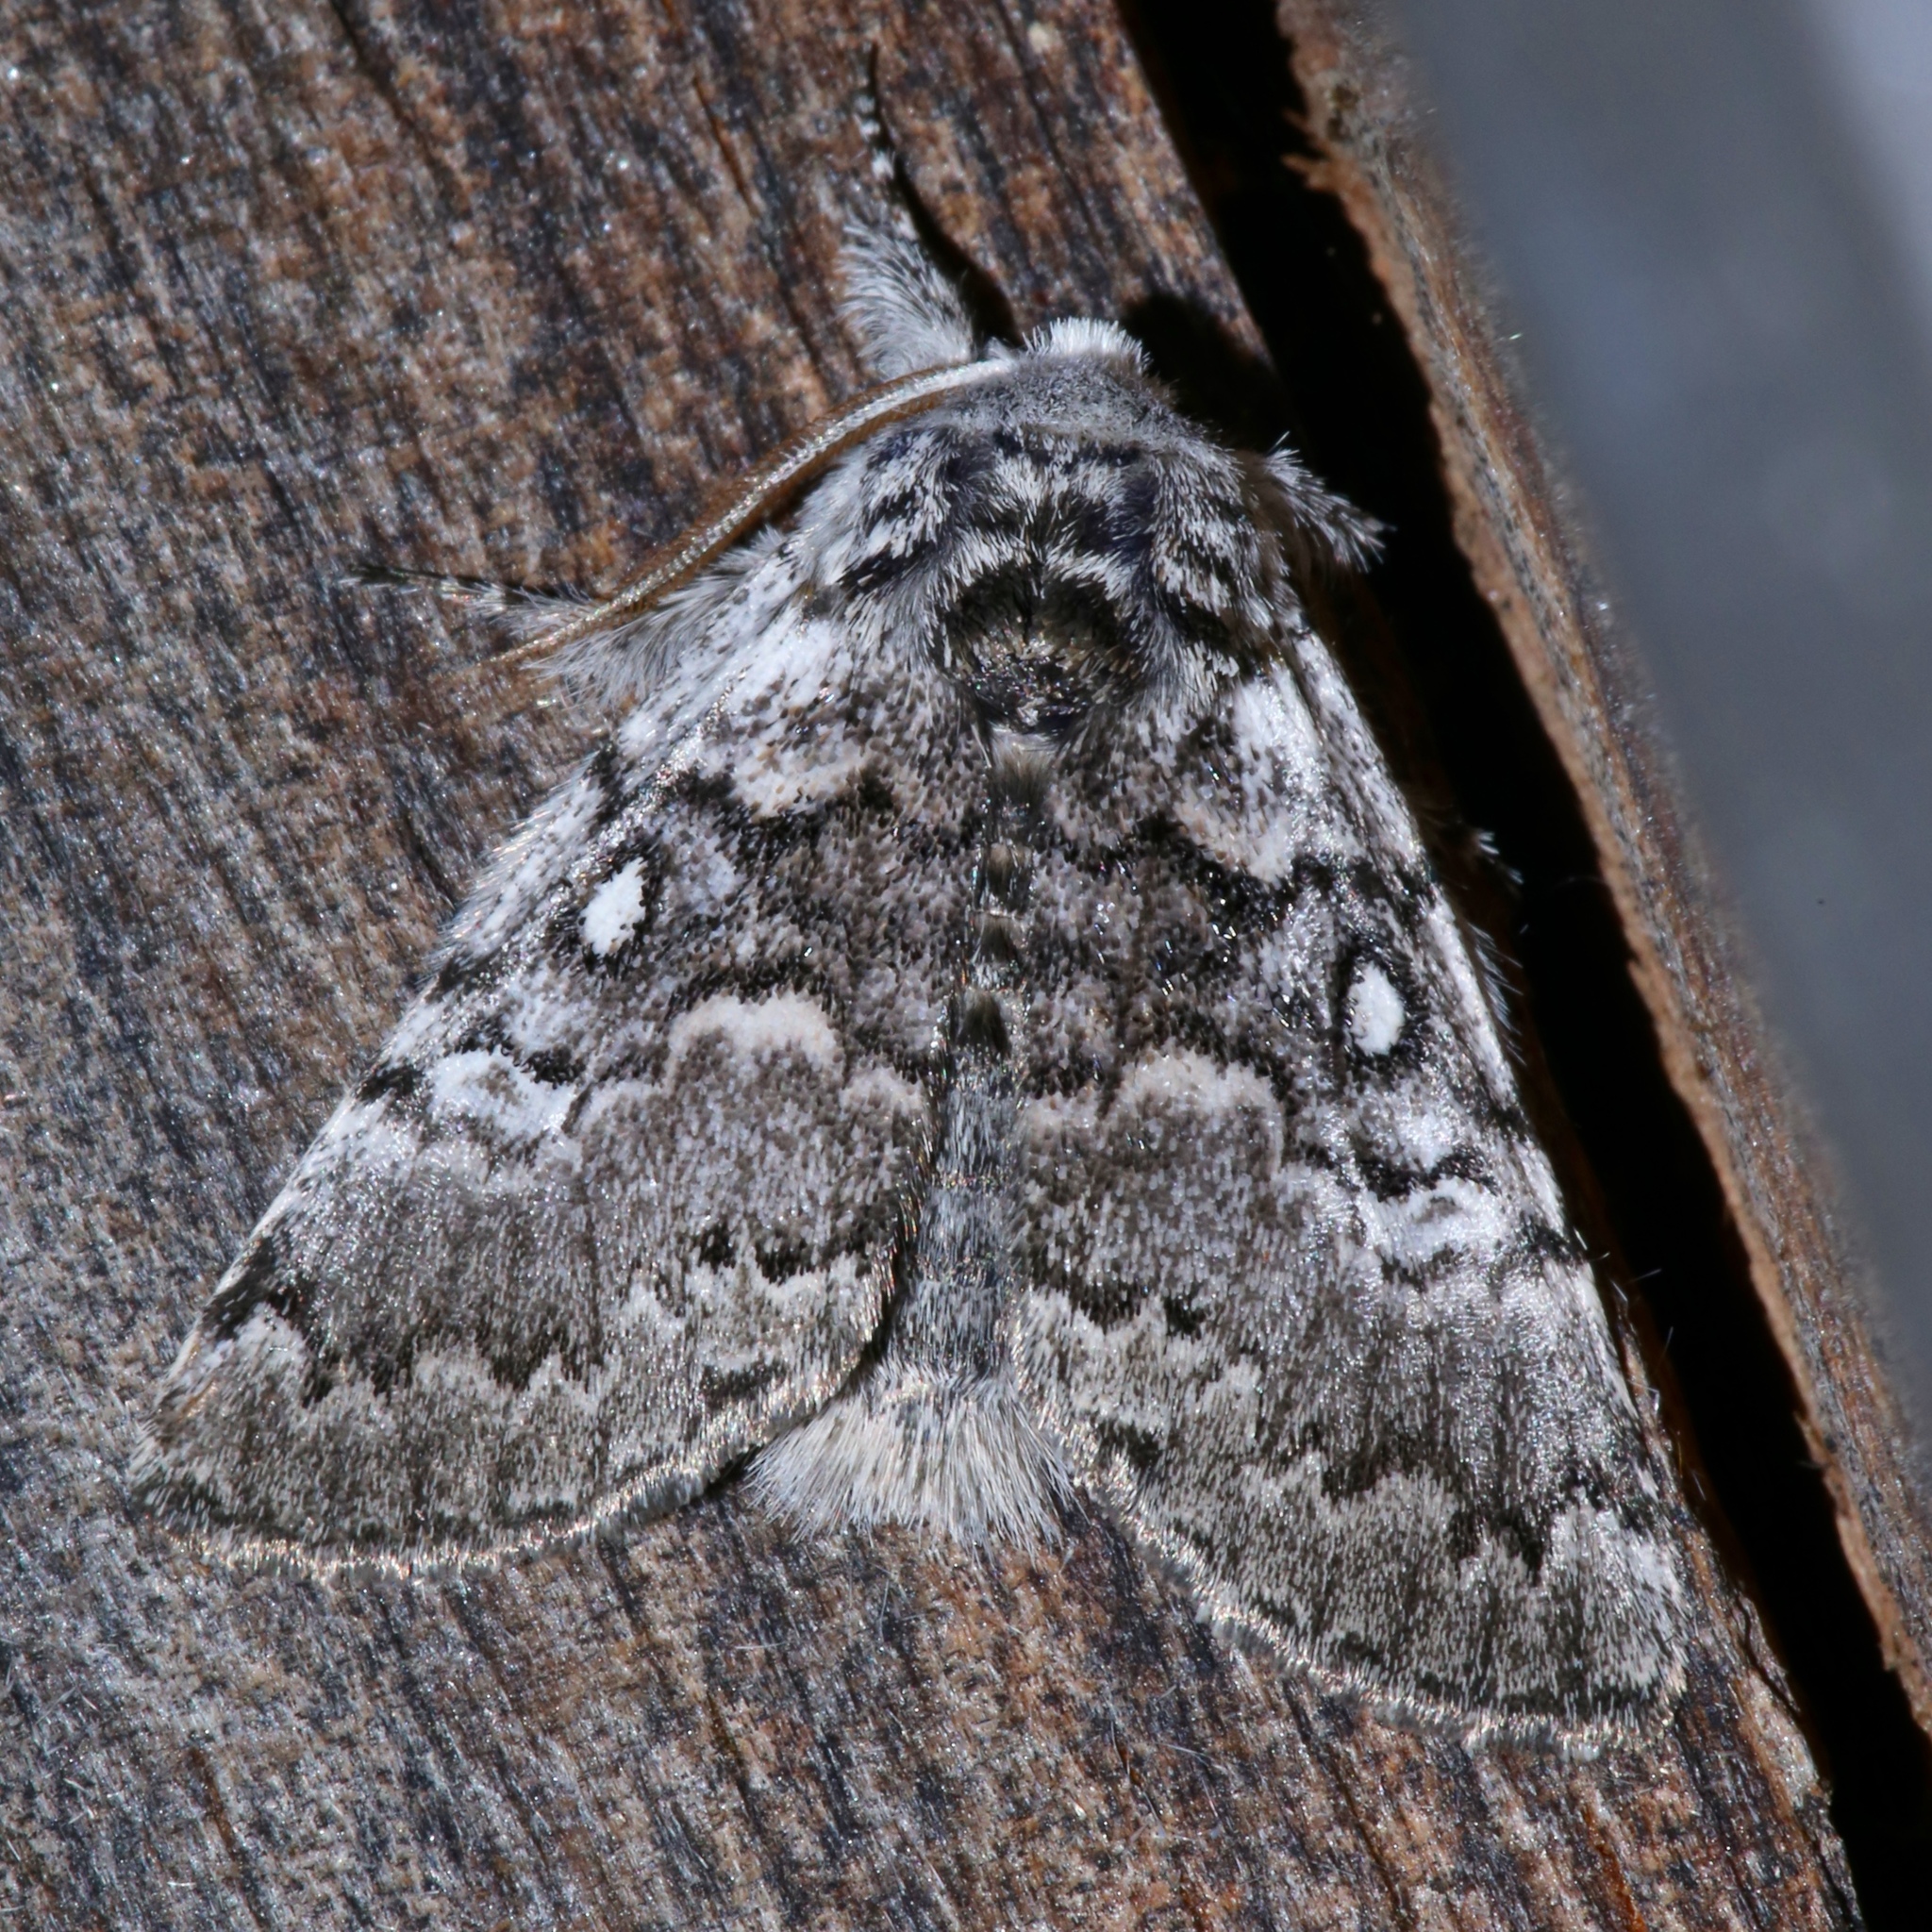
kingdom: Animalia
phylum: Arthropoda
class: Insecta
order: Lepidoptera
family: Noctuidae
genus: Colocasia
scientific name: Colocasia propinquilinea
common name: Close-banded demas
